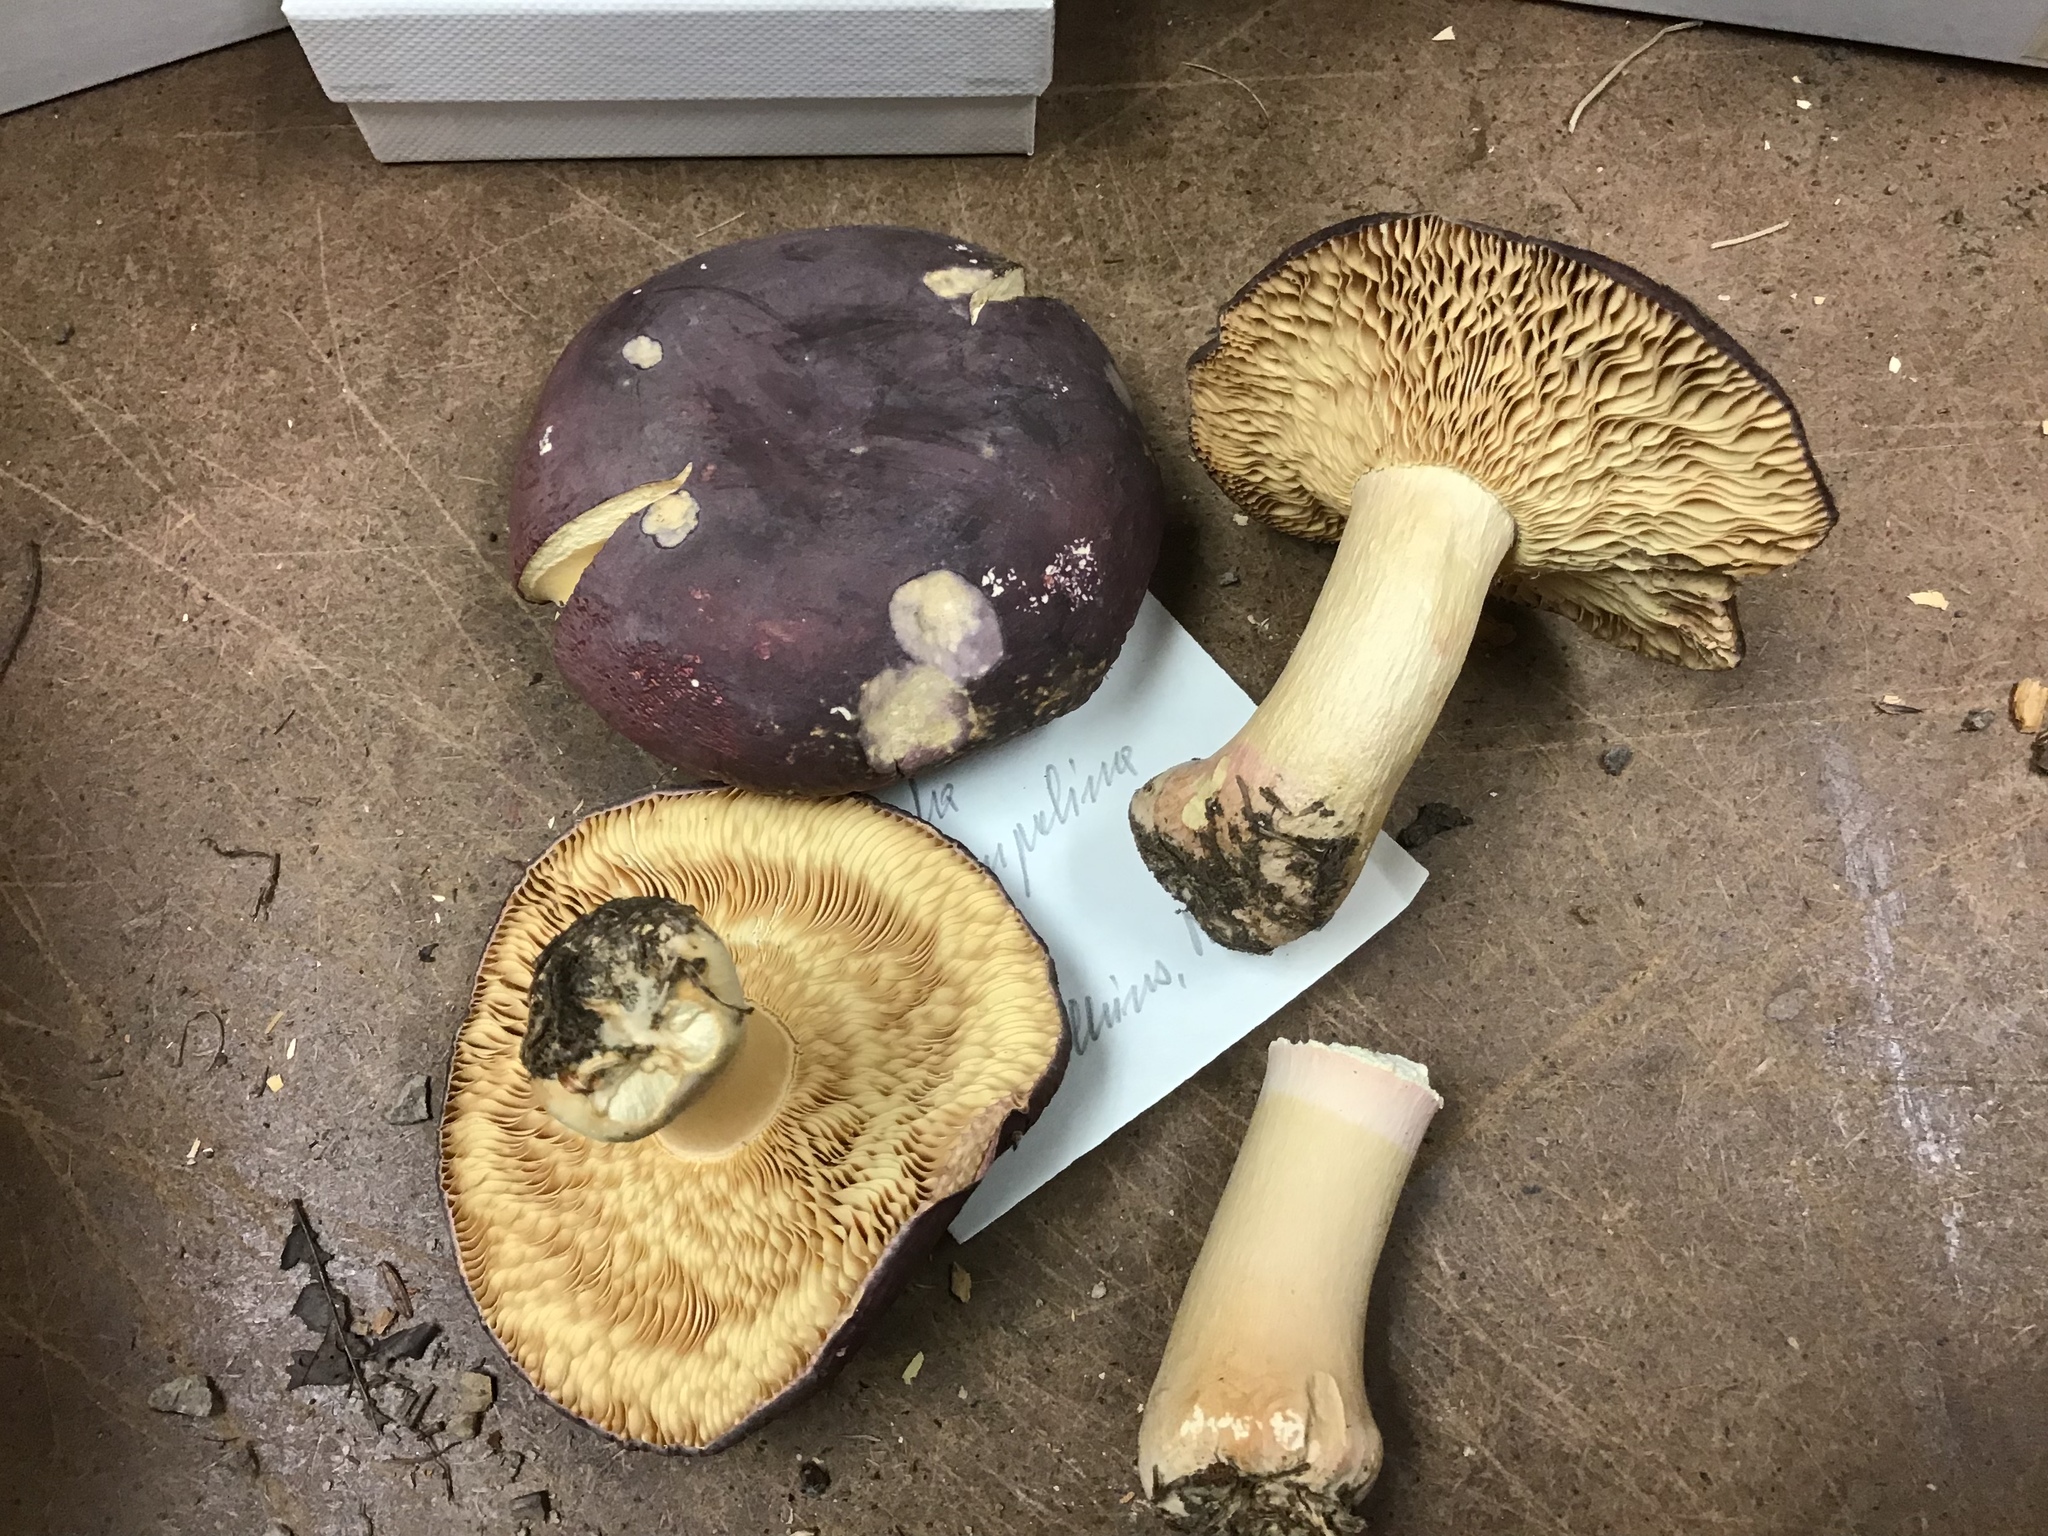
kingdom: Fungi
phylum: Basidiomycota
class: Agaricomycetes
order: Russulales
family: Russulaceae
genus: Russula
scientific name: Russula squalida
